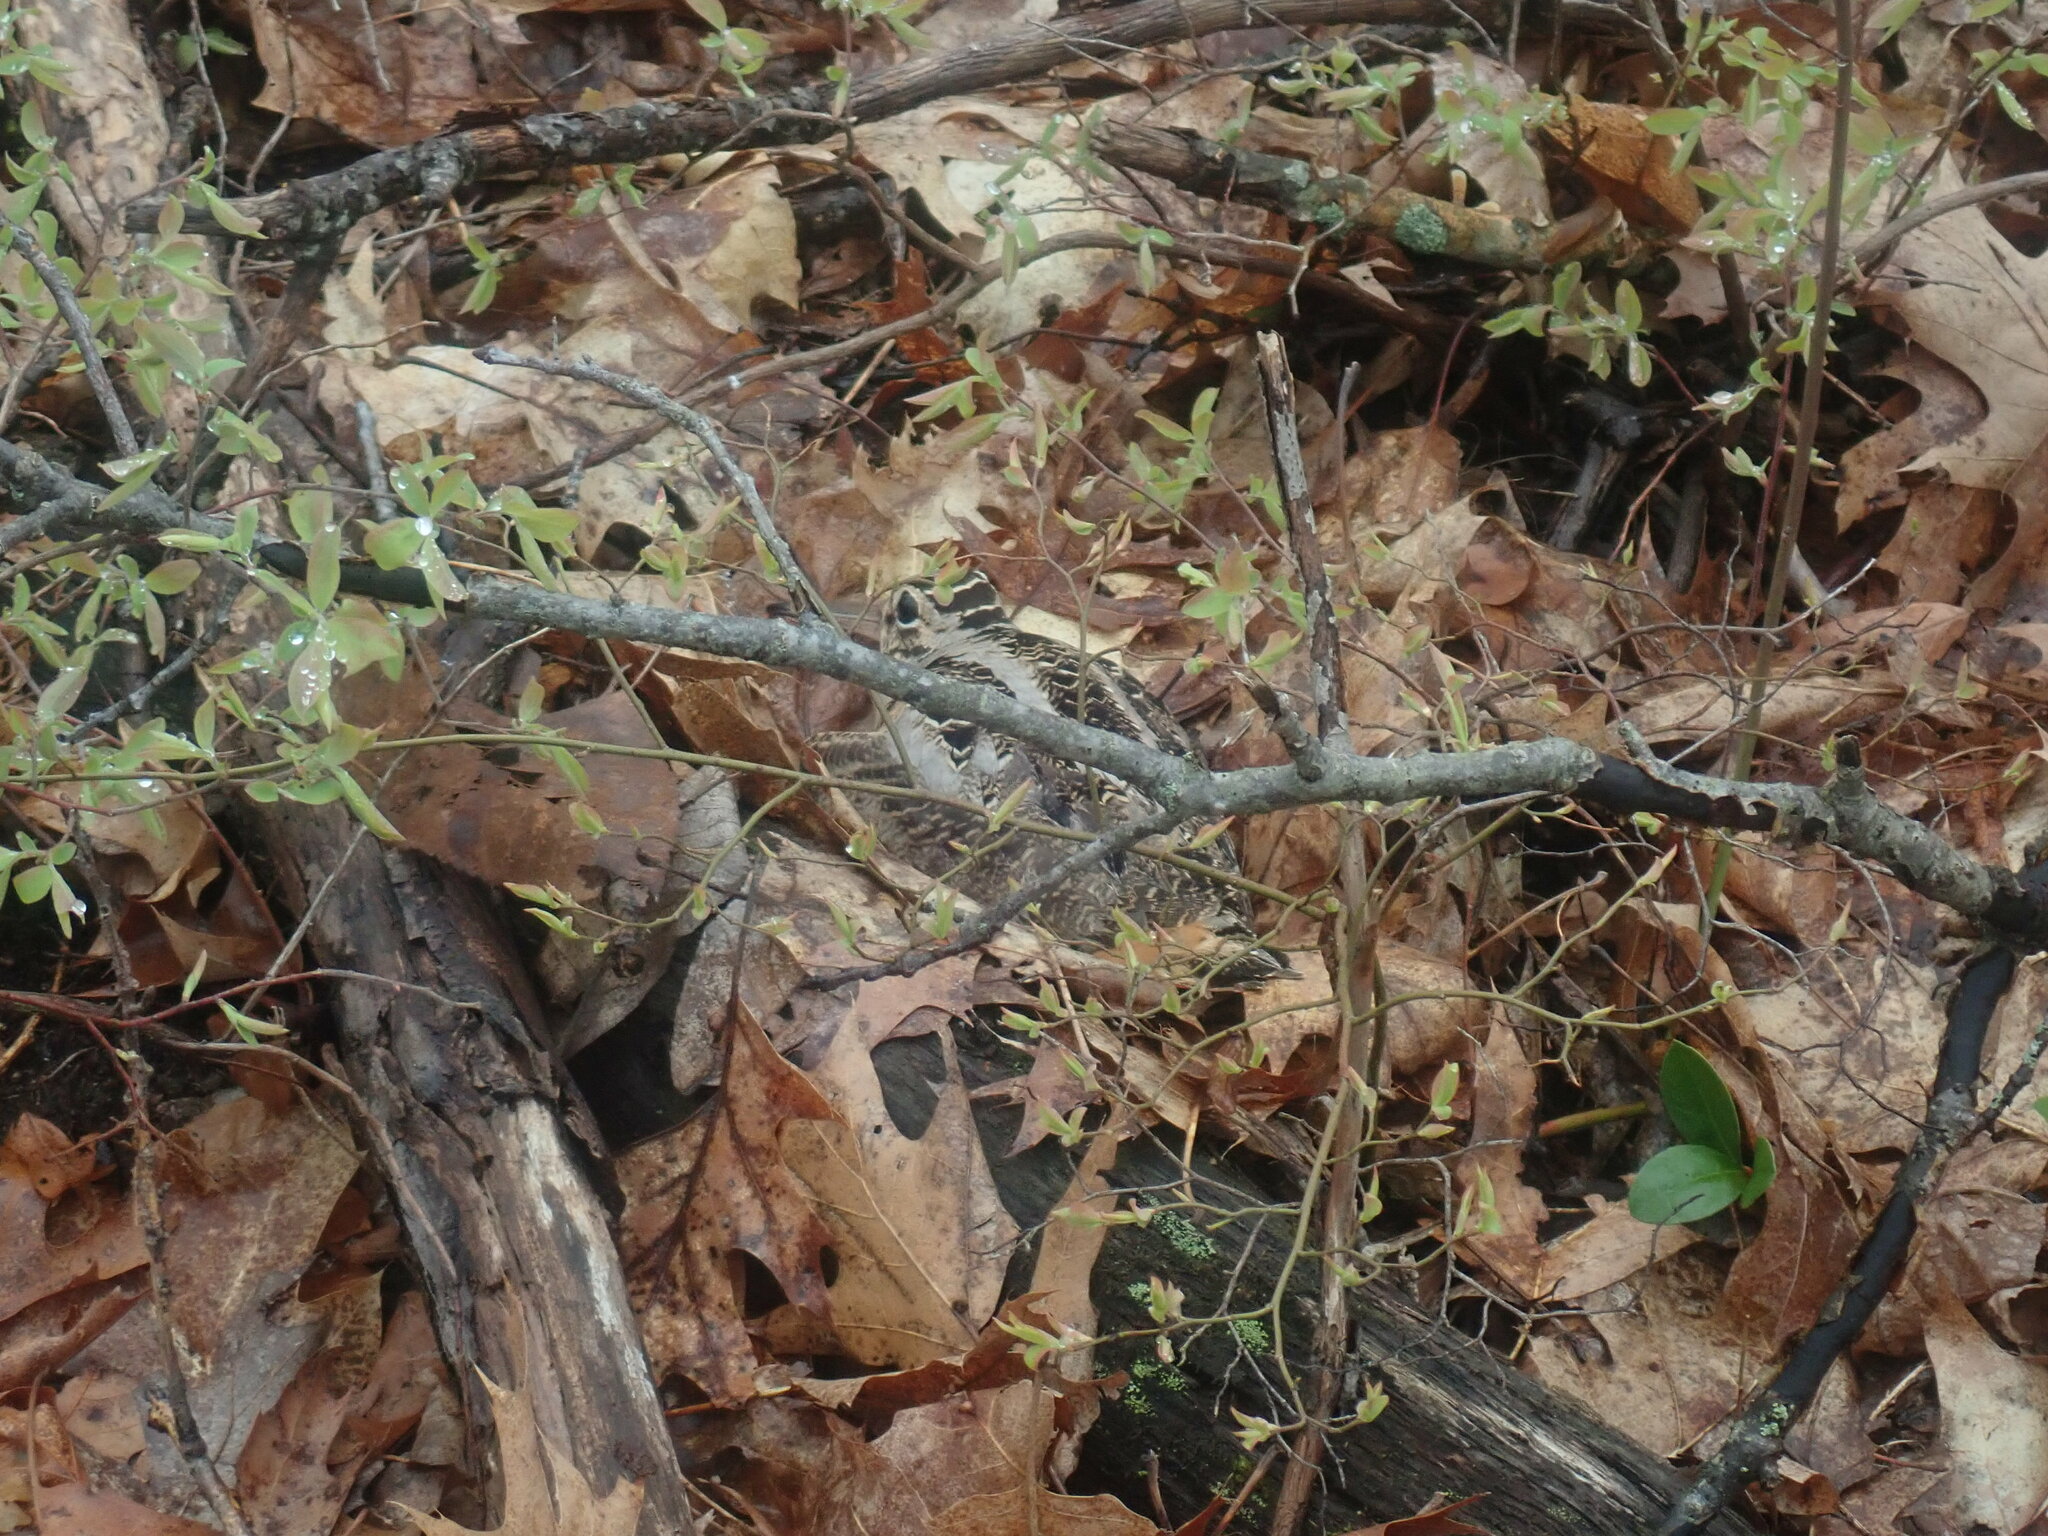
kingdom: Animalia
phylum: Chordata
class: Aves
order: Charadriiformes
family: Scolopacidae
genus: Scolopax
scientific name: Scolopax minor
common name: American woodcock
